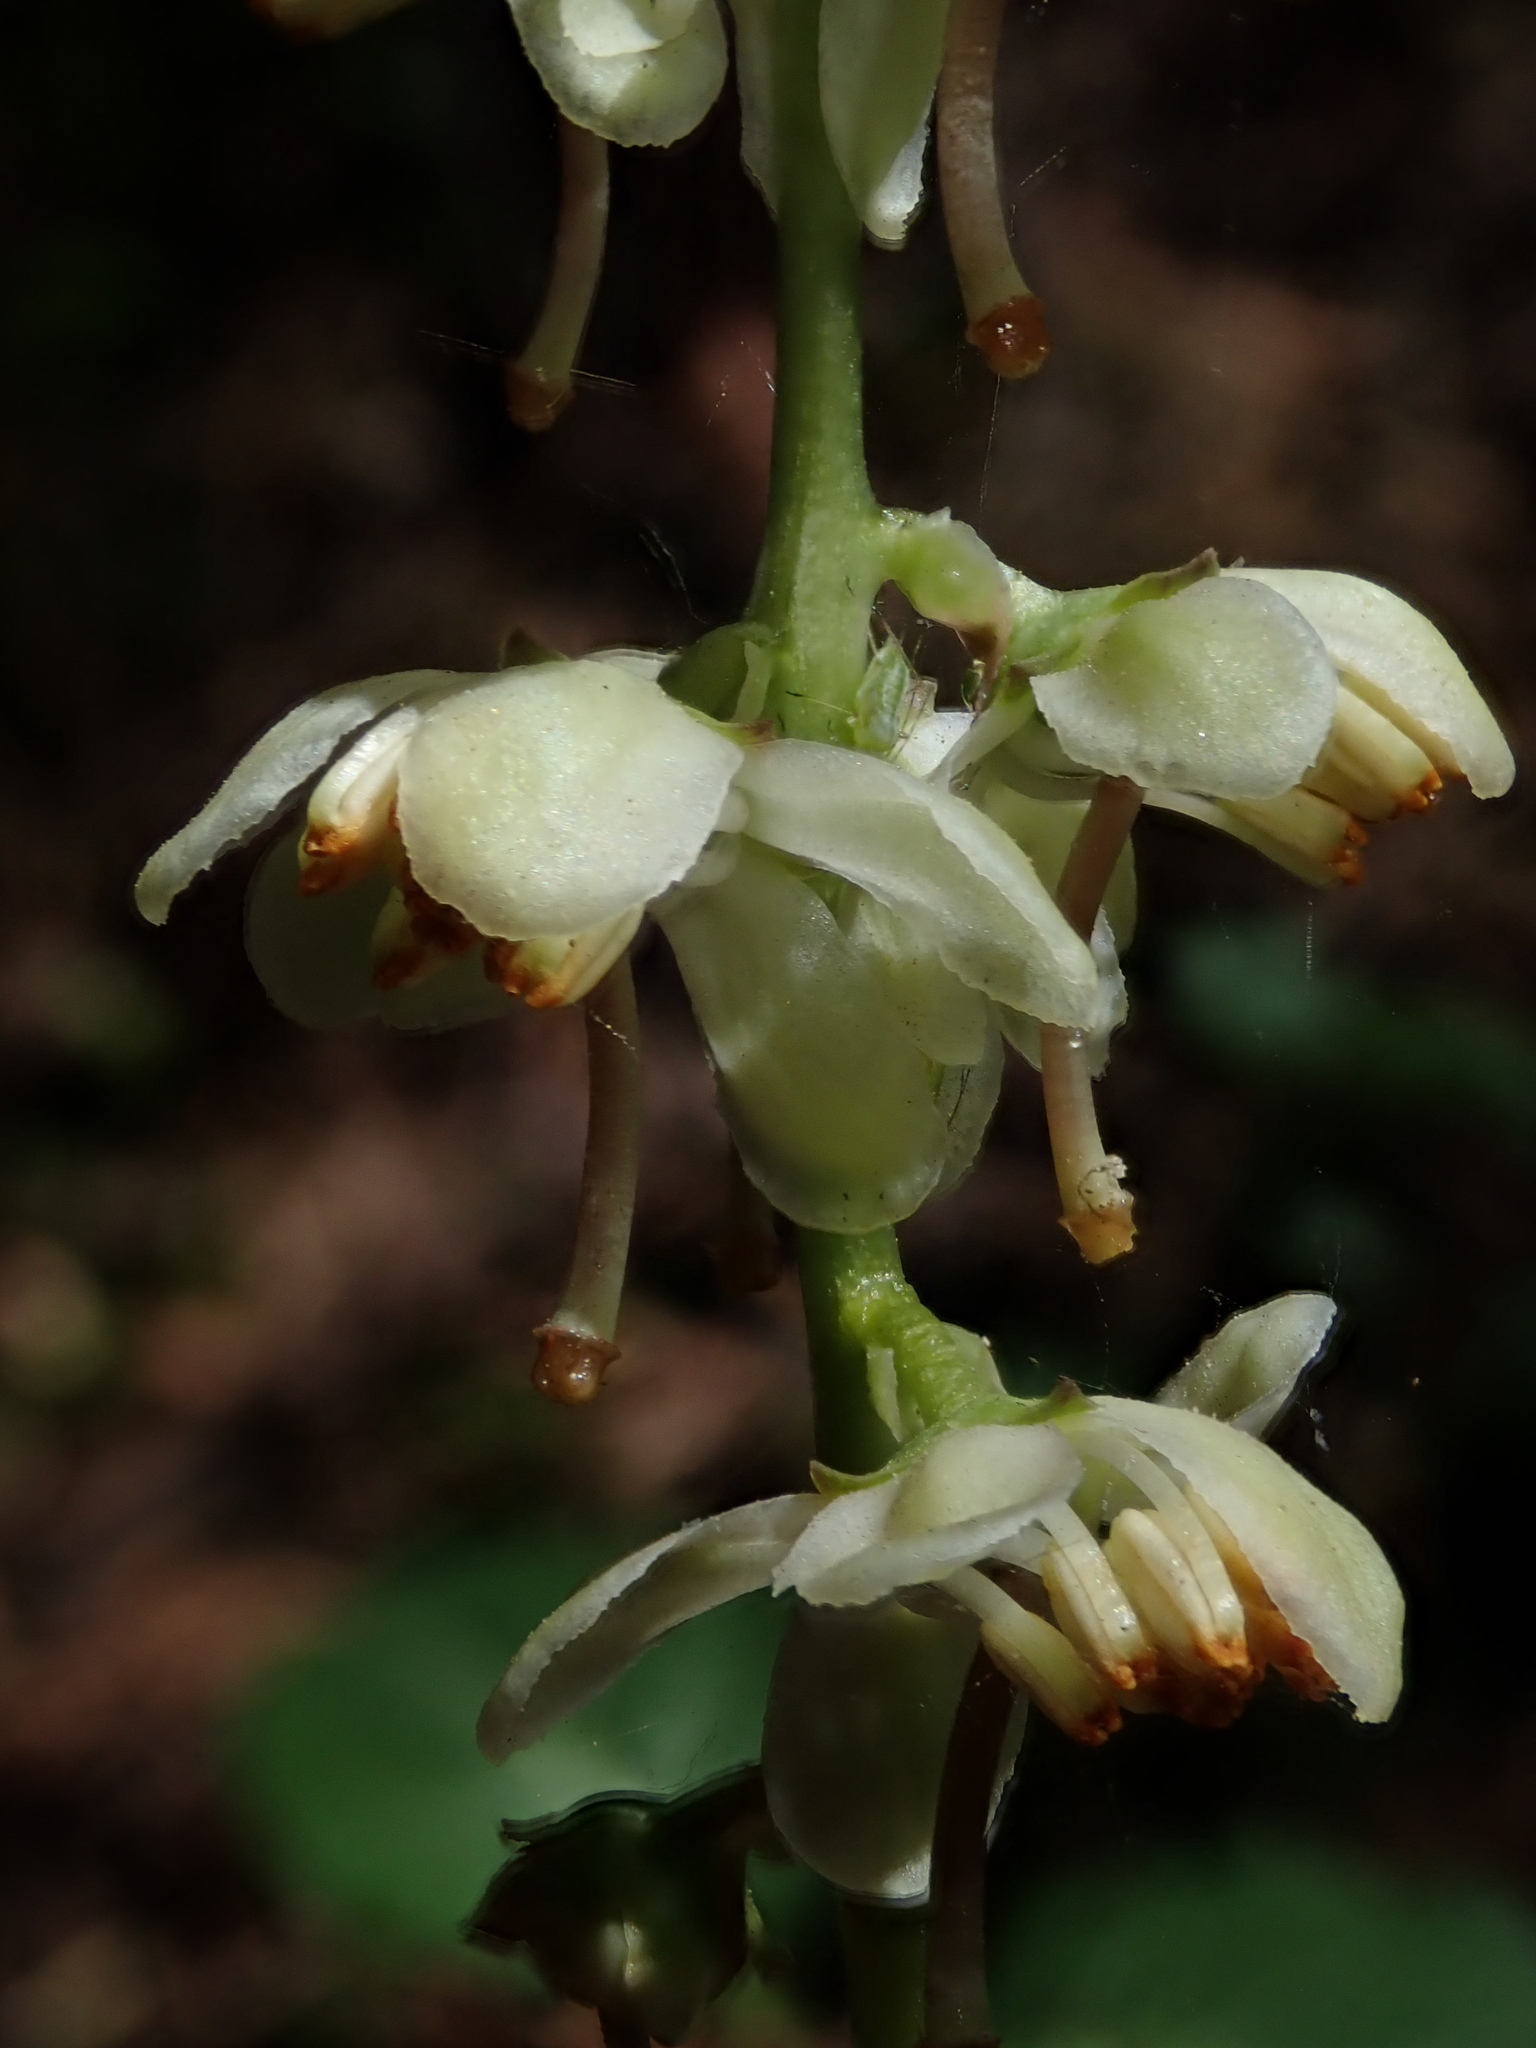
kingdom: Plantae
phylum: Tracheophyta
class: Magnoliopsida
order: Ericales
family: Ericaceae
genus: Pyrola
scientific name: Pyrola picta
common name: White-vein wintergreen
